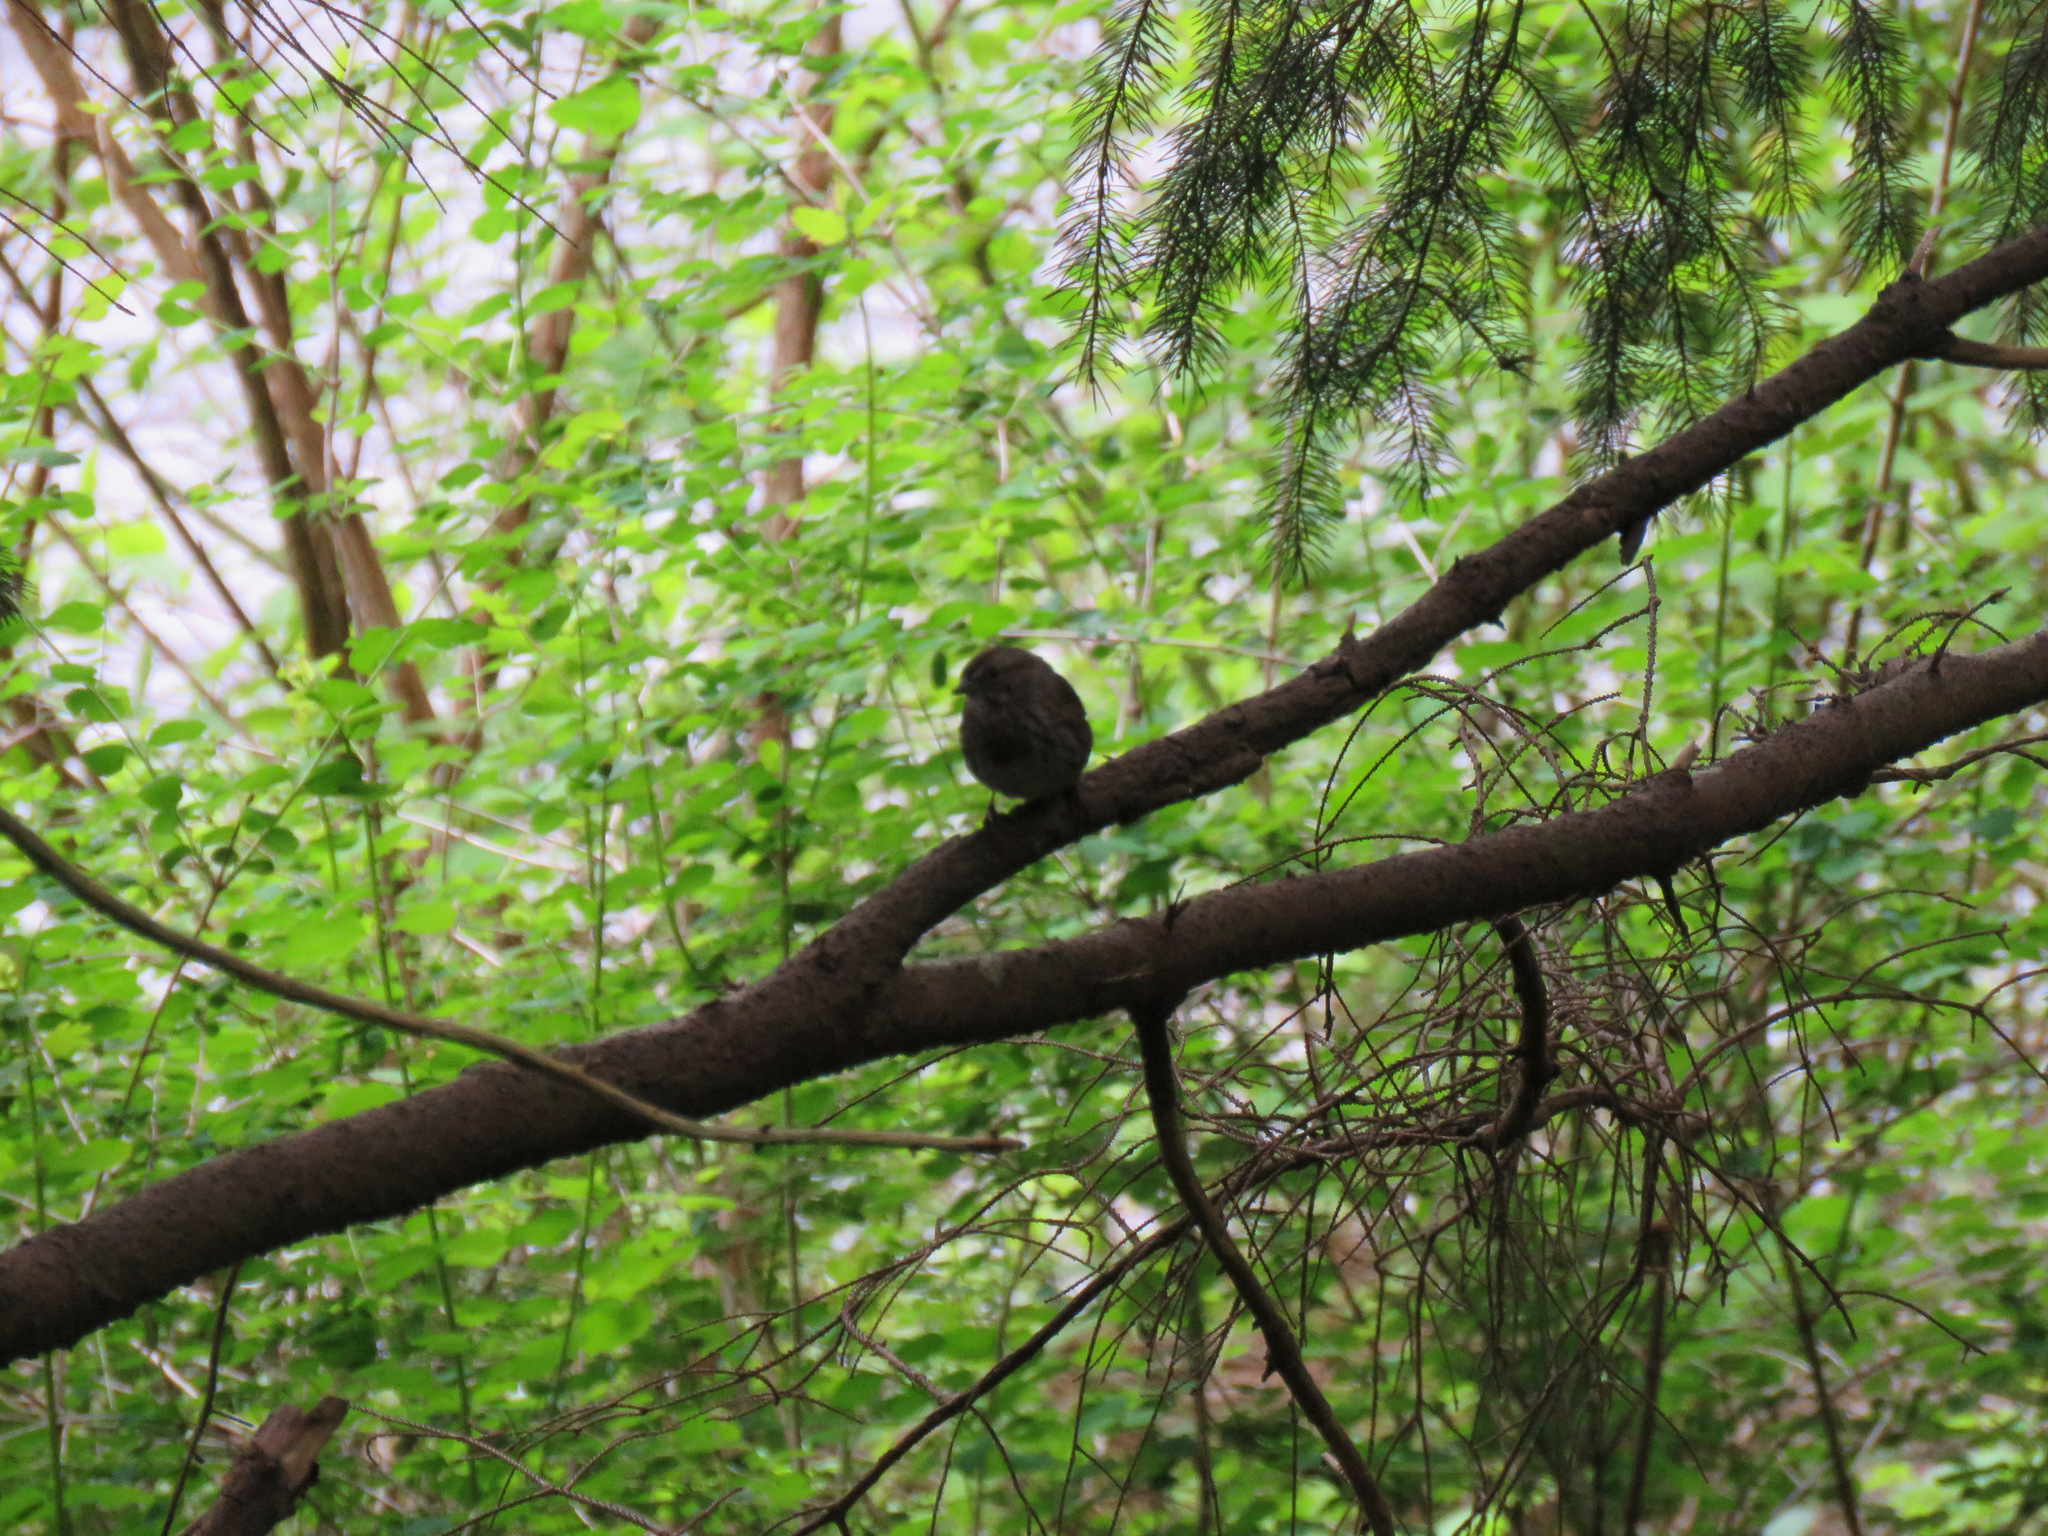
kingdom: Animalia
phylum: Chordata
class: Aves
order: Passeriformes
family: Passerellidae
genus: Melospiza
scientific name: Melospiza melodia
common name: Song sparrow
